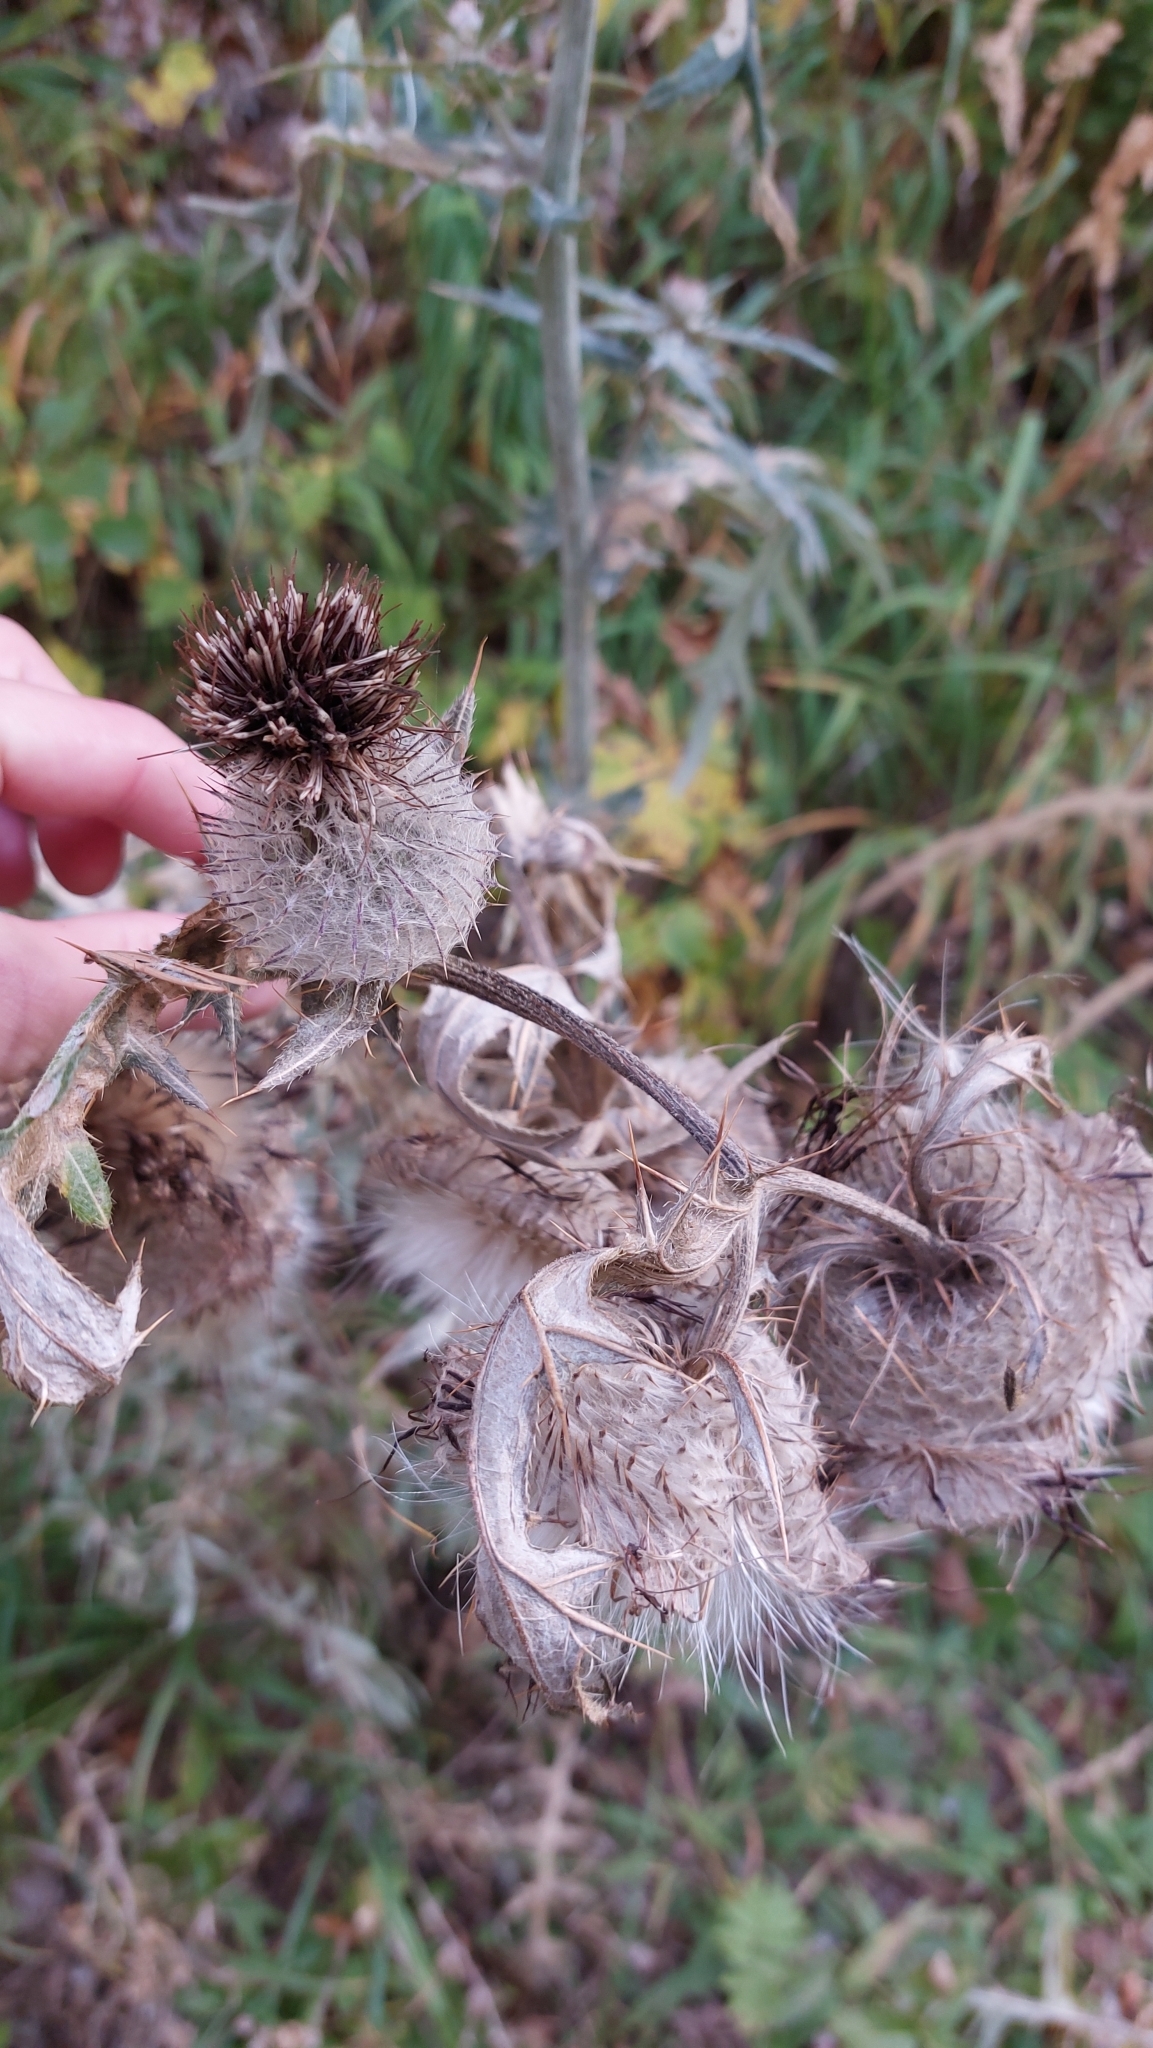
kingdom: Plantae
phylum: Tracheophyta
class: Magnoliopsida
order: Asterales
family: Asteraceae
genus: Lophiolepis
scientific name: Lophiolepis eriophora
